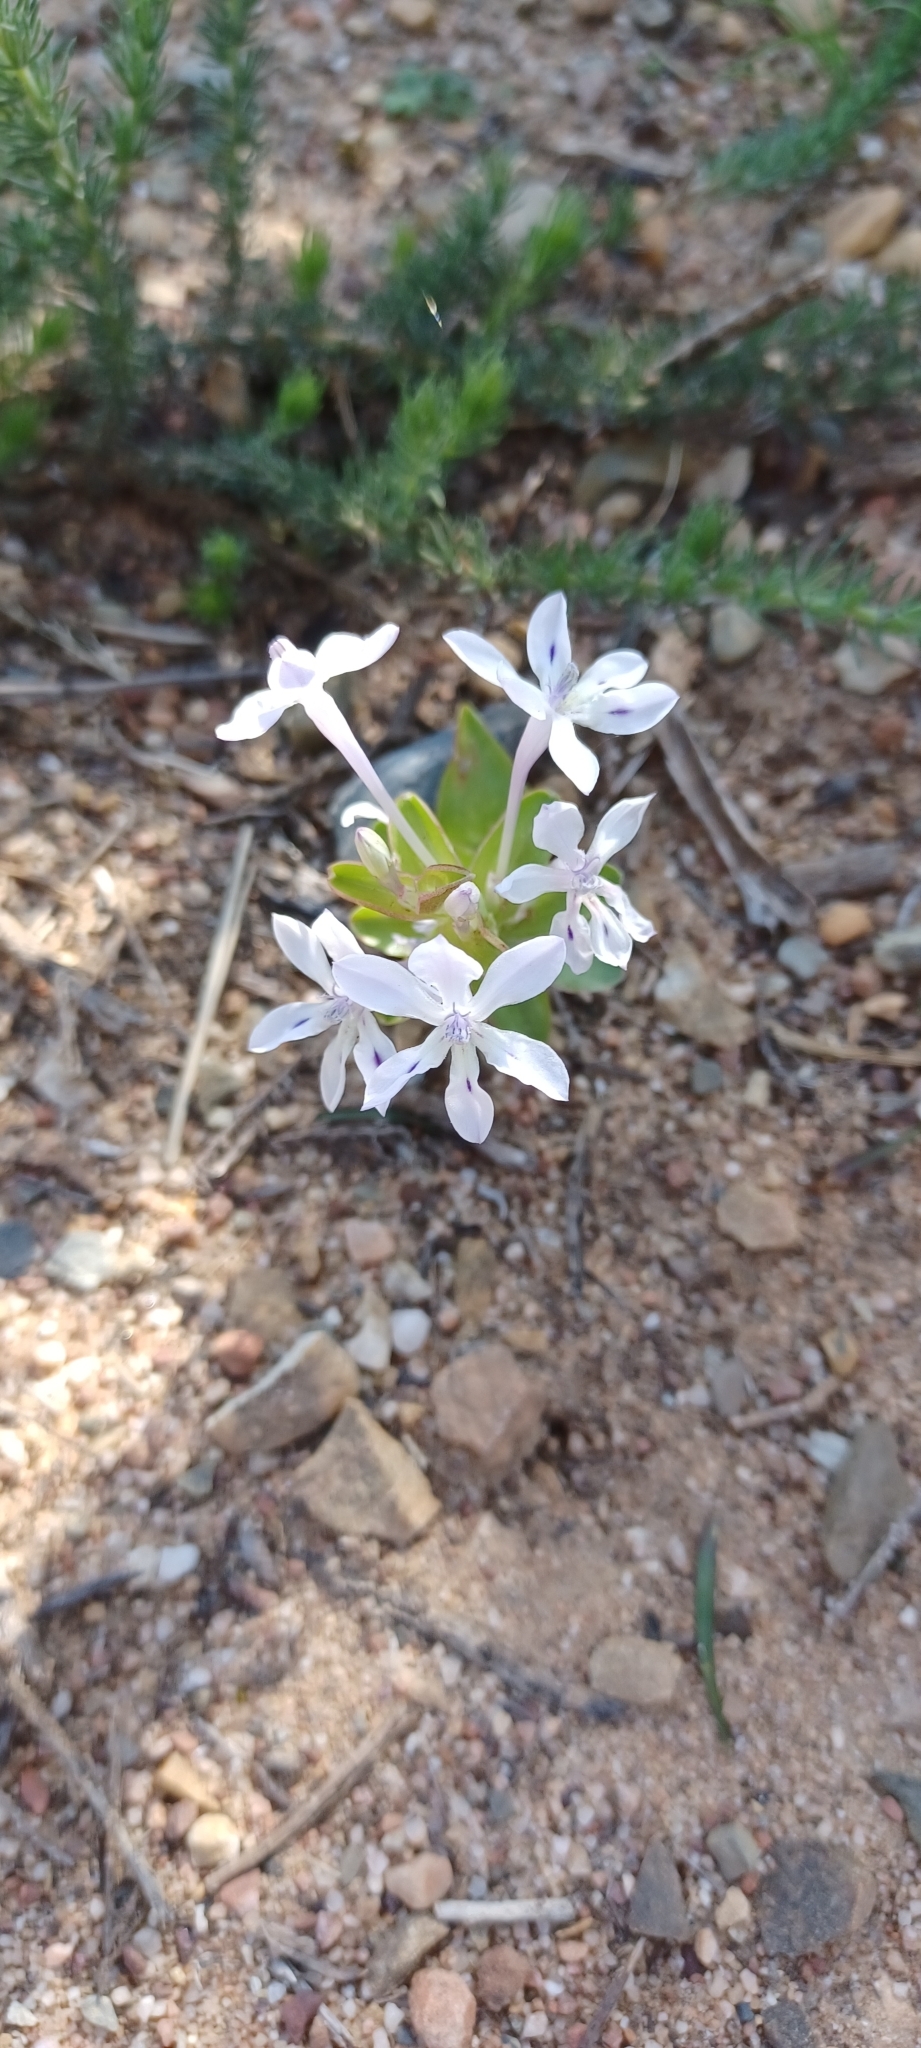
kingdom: Plantae
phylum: Tracheophyta
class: Liliopsida
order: Asparagales
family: Iridaceae
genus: Lapeirousia
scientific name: Lapeirousia pyramidalis
